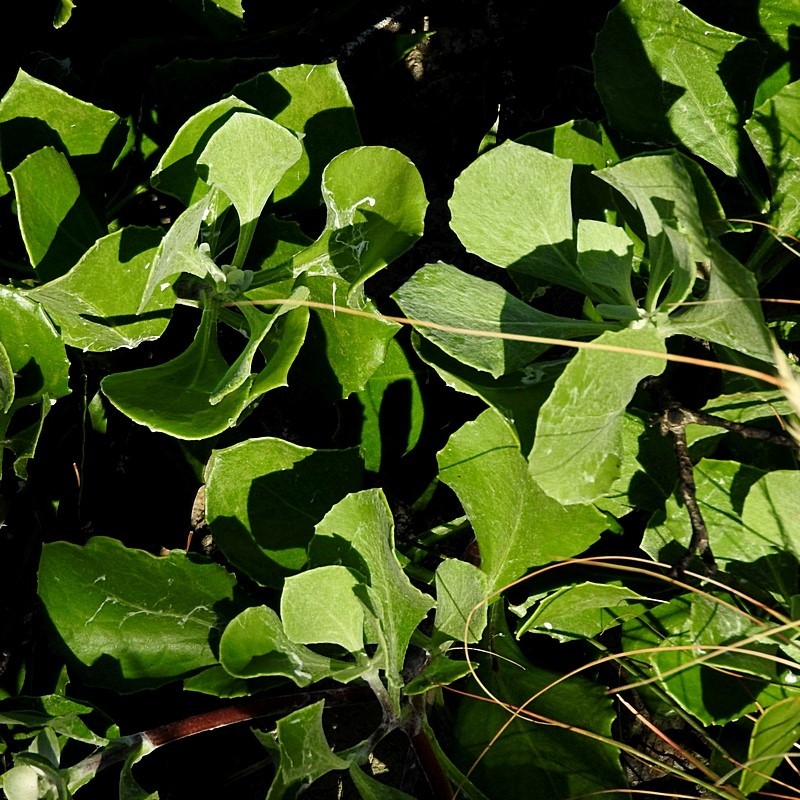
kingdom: Plantae
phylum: Tracheophyta
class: Magnoliopsida
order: Asterales
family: Asteraceae
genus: Osteospermum
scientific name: Osteospermum moniliferum
